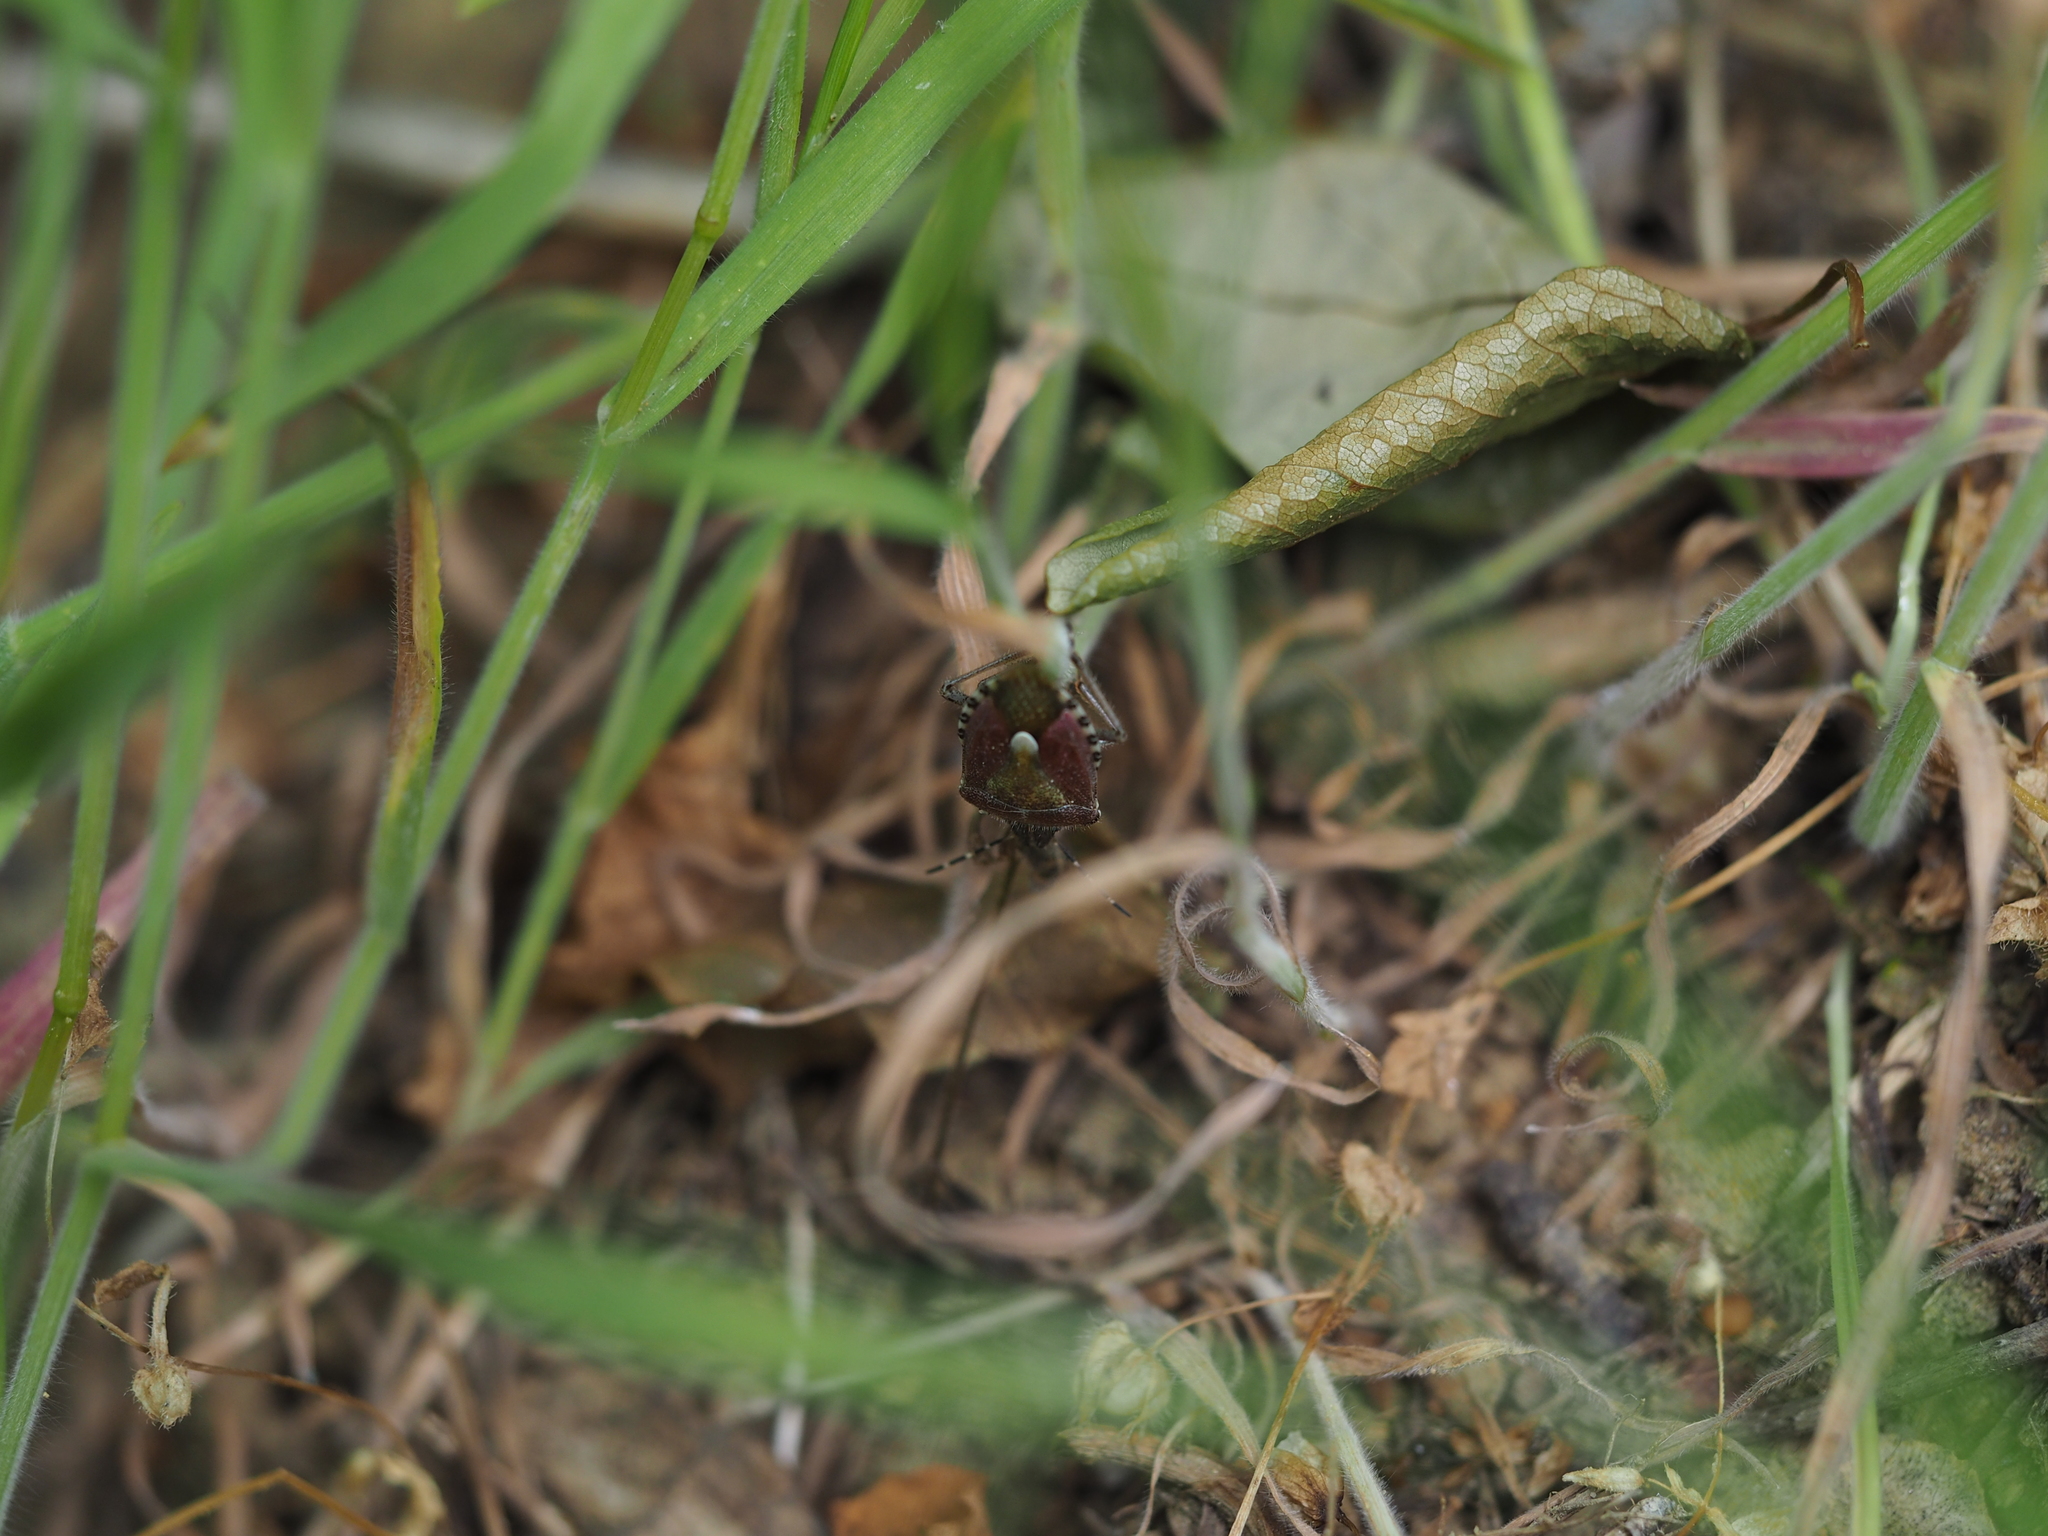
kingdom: Animalia
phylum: Arthropoda
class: Insecta
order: Hemiptera
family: Pentatomidae
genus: Dolycoris
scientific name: Dolycoris baccarum
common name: Sloe bug
